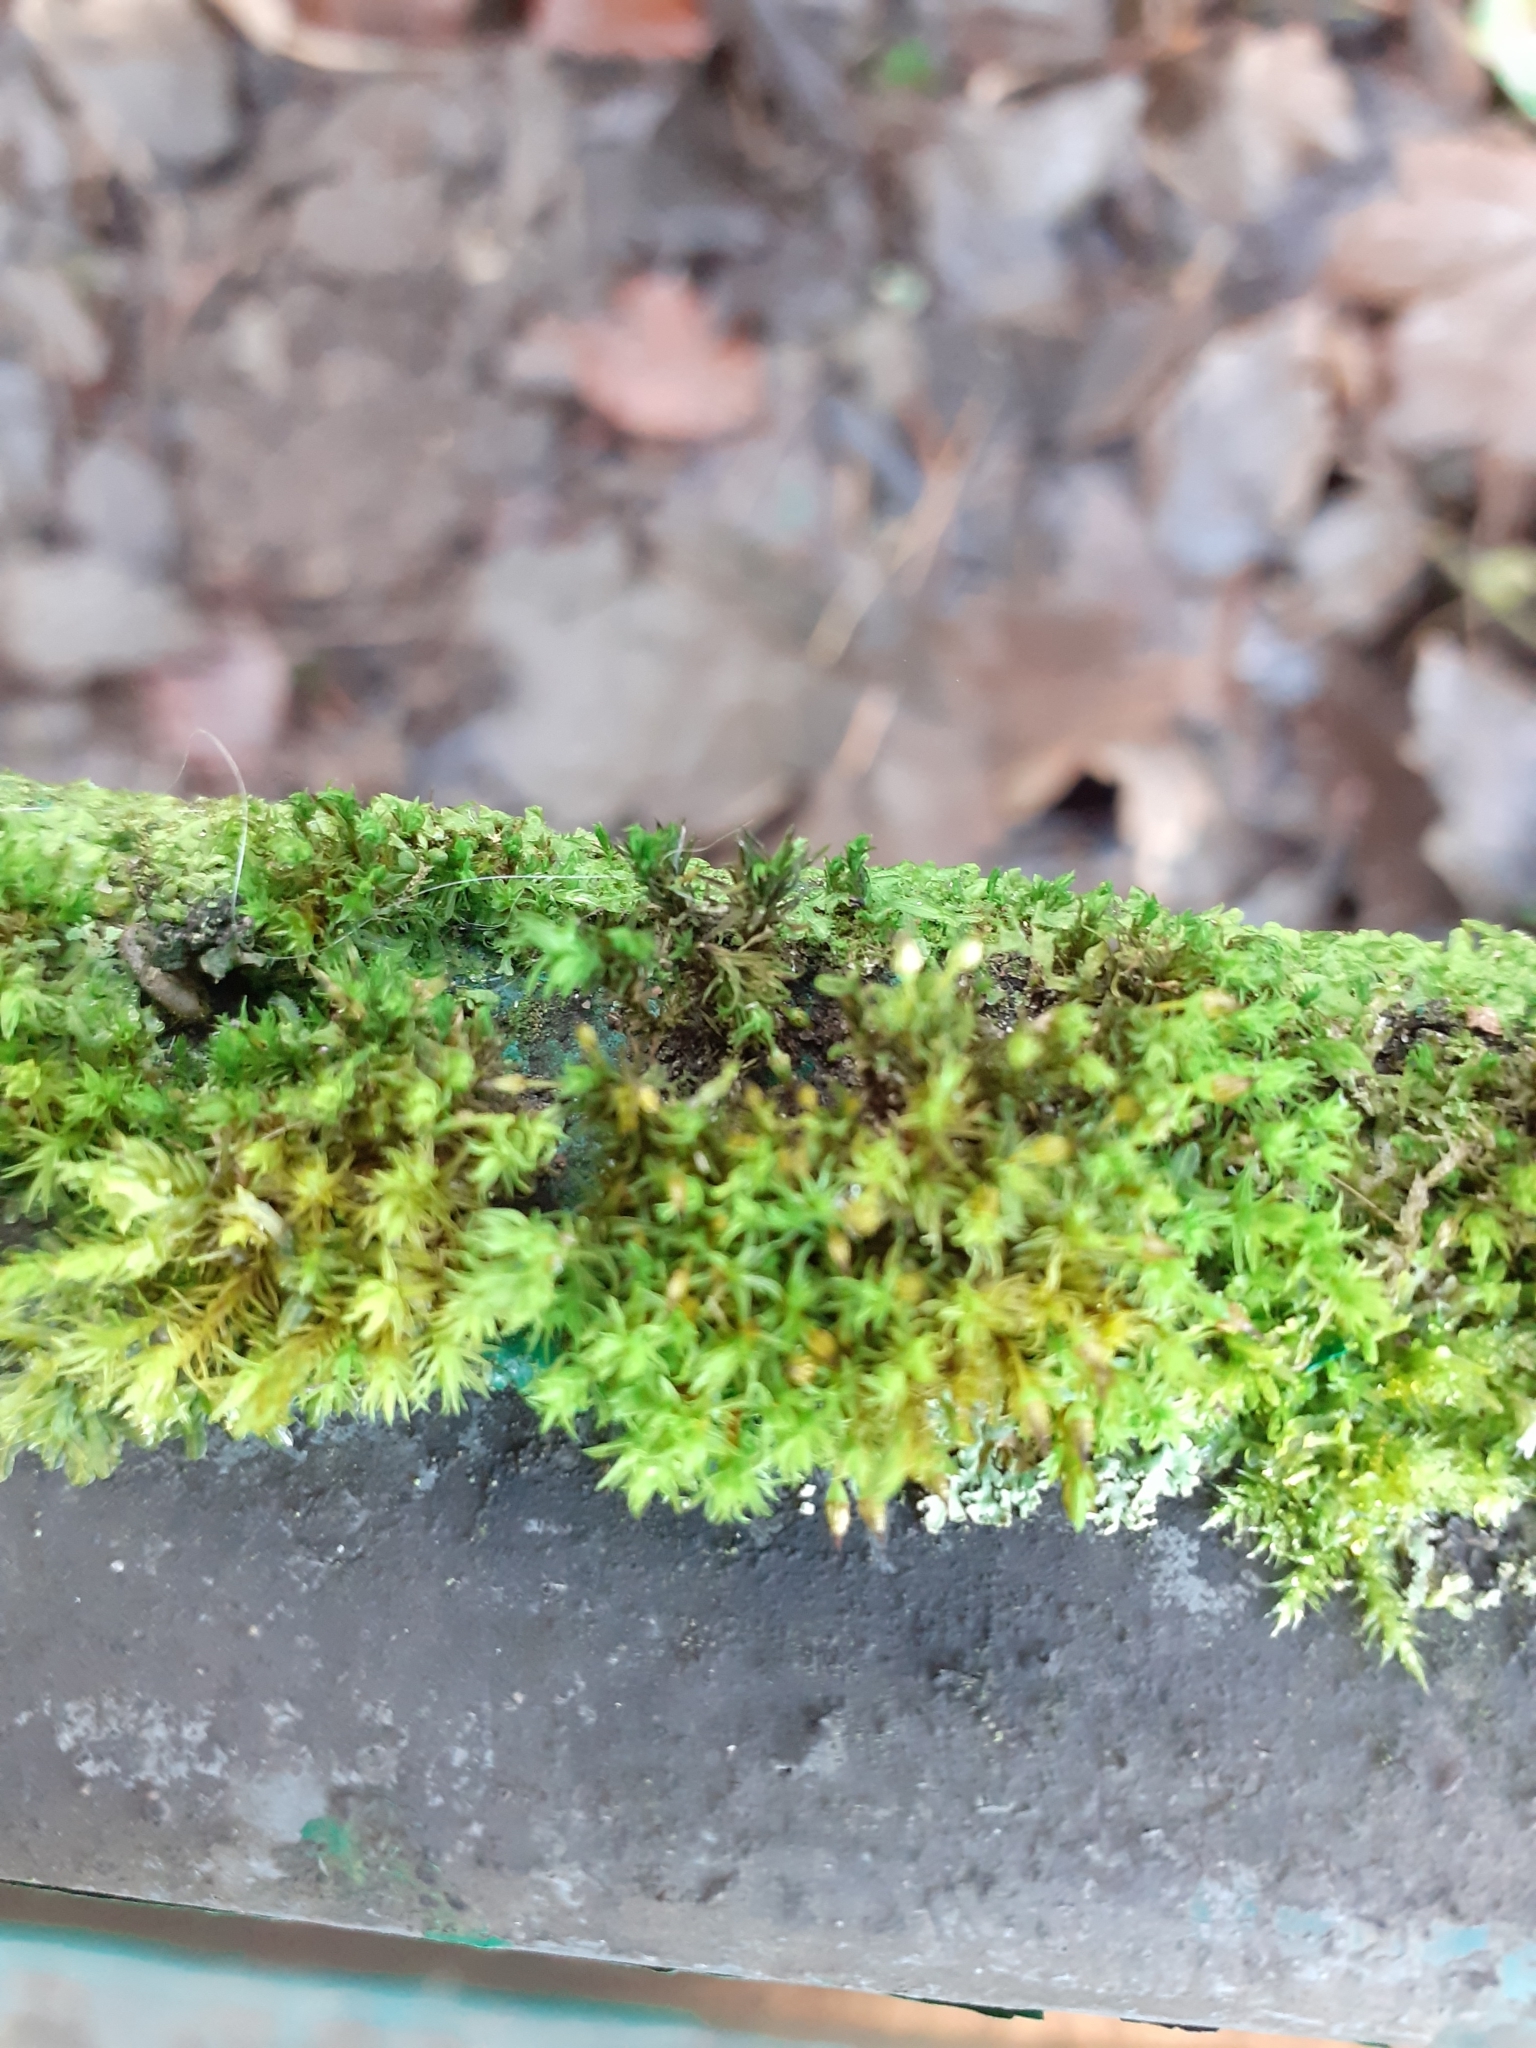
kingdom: Plantae
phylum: Bryophyta
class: Bryopsida
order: Orthotrichales
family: Orthotrichaceae
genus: Orthotrichum
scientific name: Orthotrichum pulchellum
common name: Elegant bristle-moss
